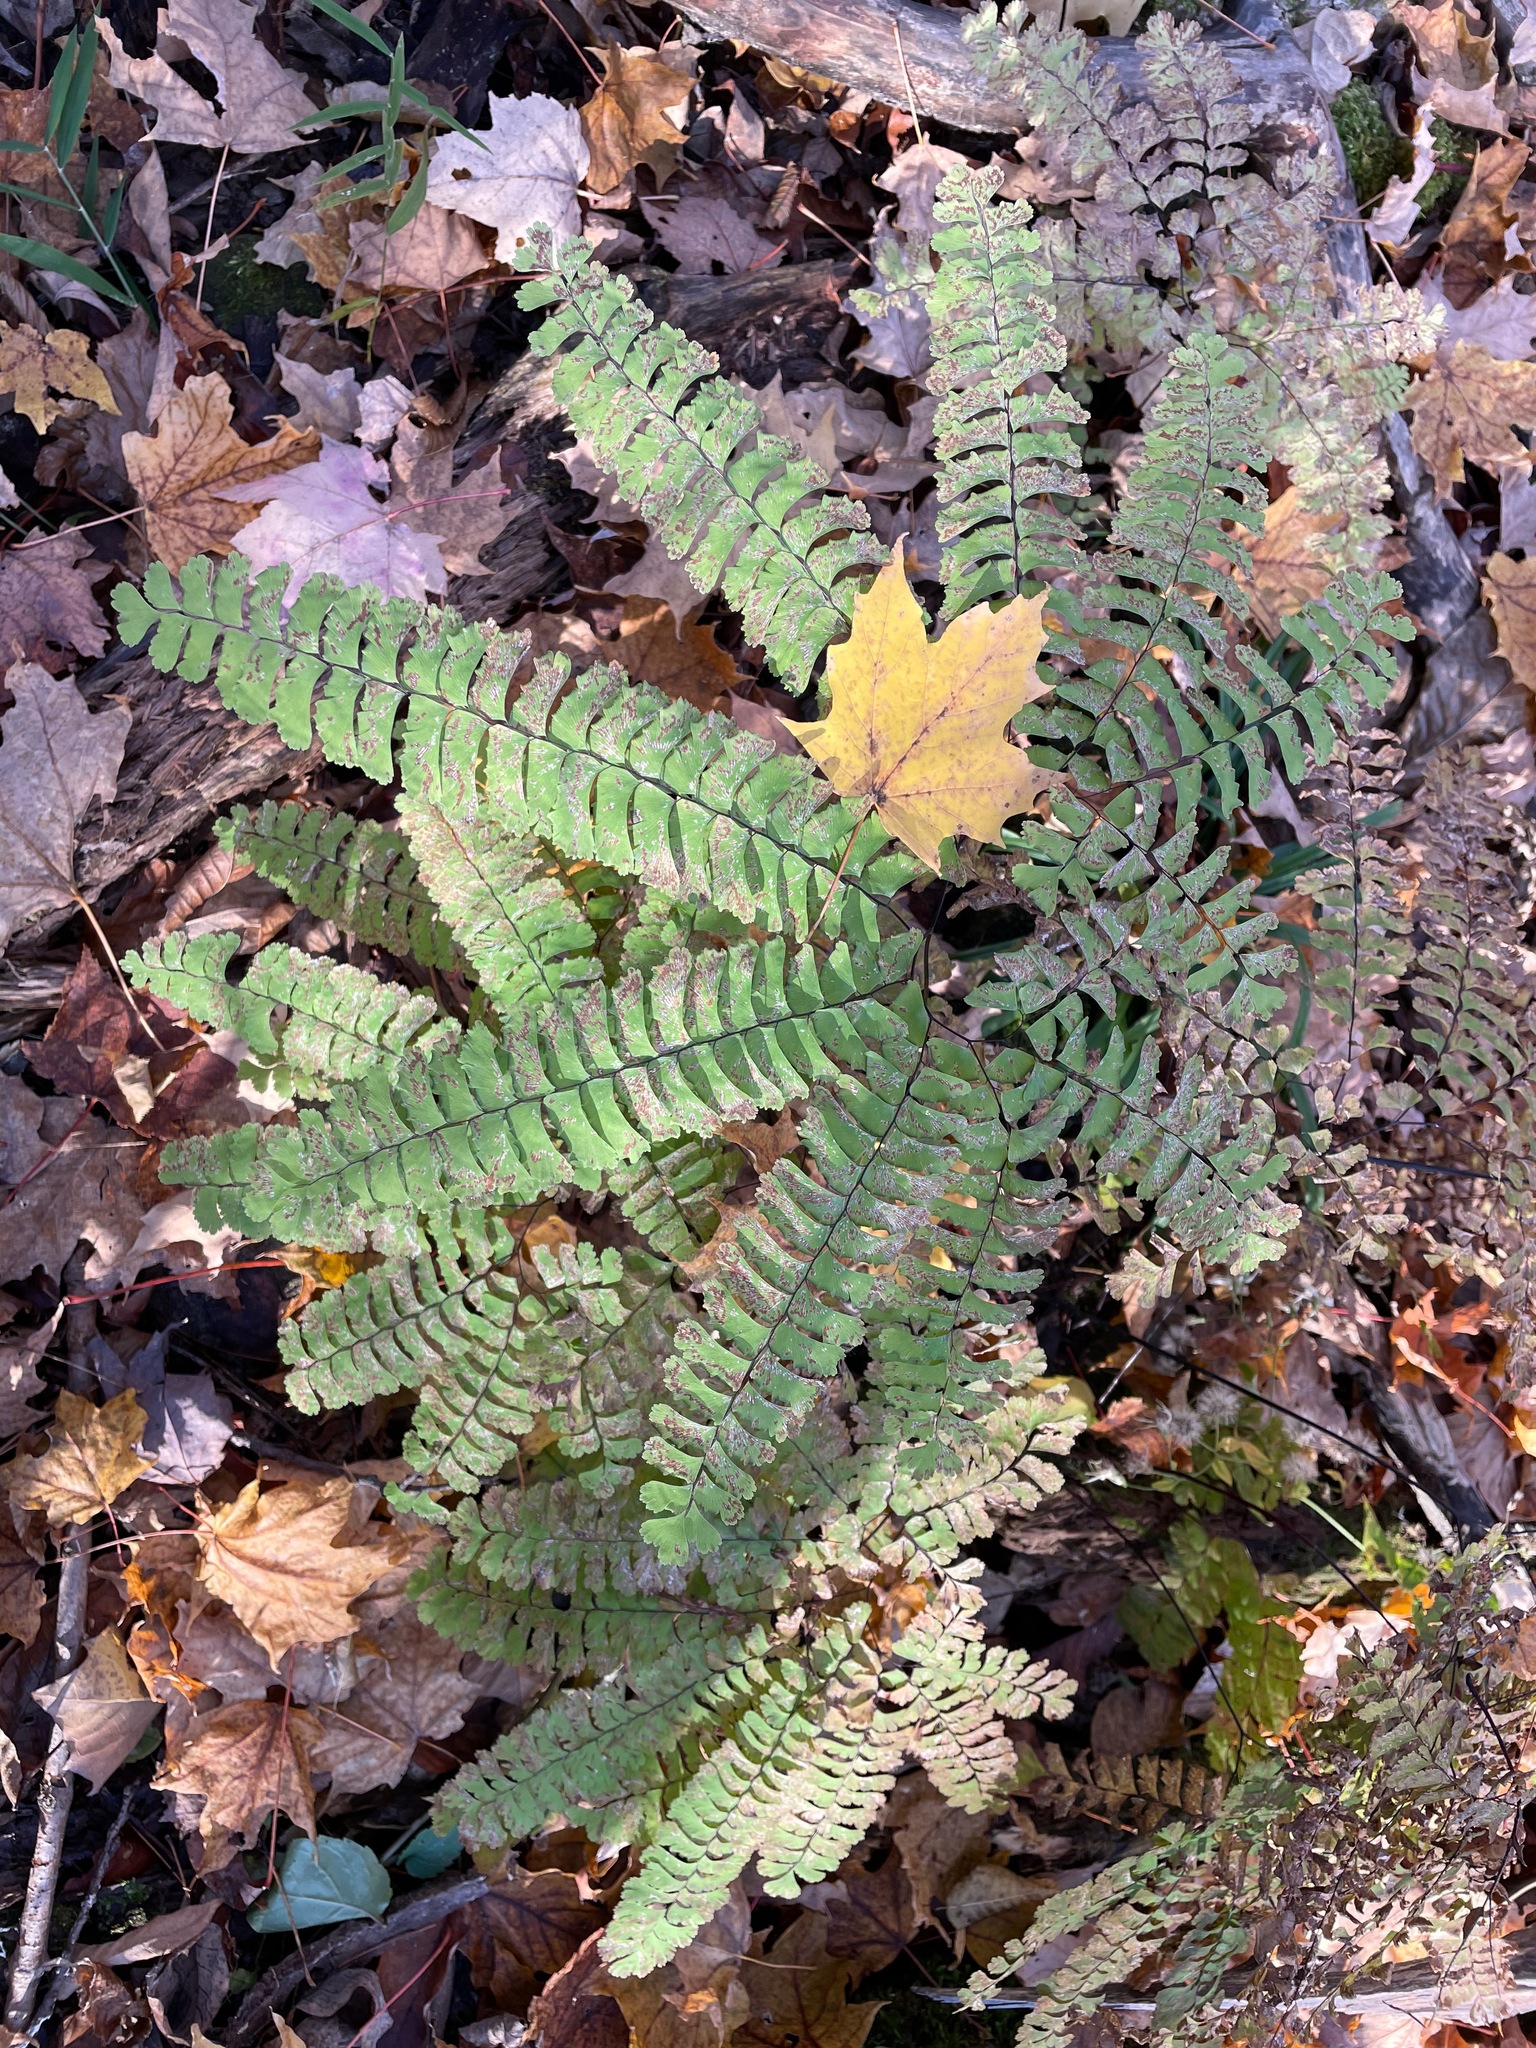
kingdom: Plantae
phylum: Tracheophyta
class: Polypodiopsida
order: Polypodiales
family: Pteridaceae
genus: Adiantum
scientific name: Adiantum pedatum
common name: Five-finger fern
